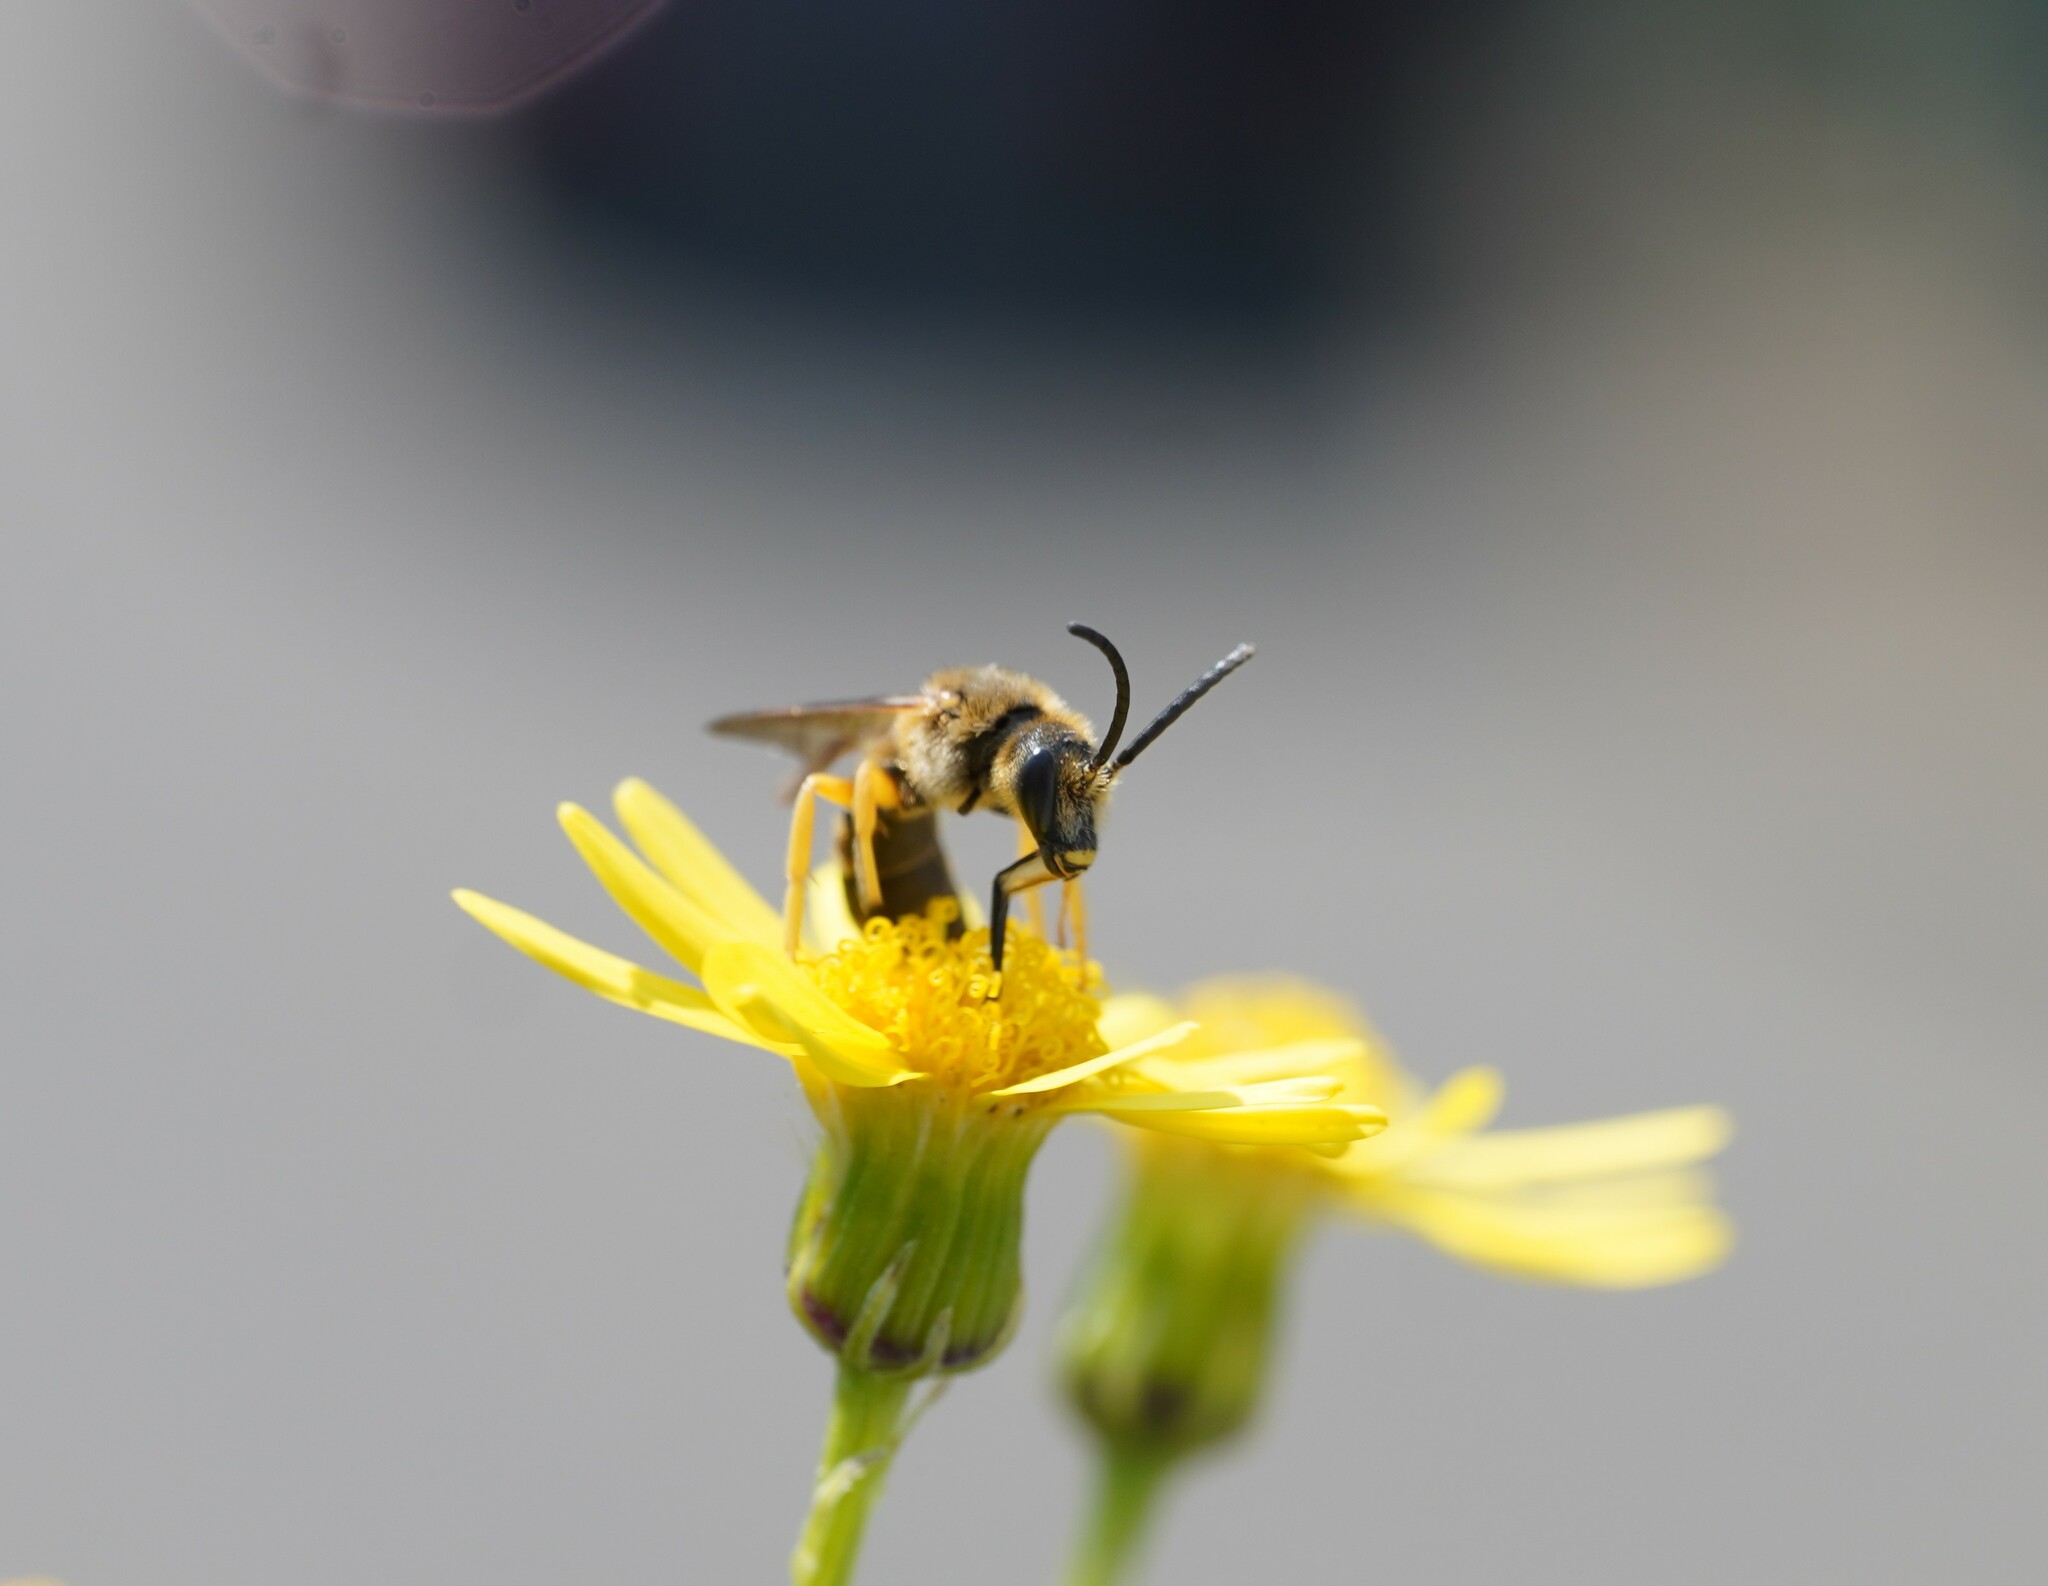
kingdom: Animalia
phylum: Arthropoda
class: Insecta
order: Hymenoptera
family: Halictidae
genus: Halictus
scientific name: Halictus scabiosae
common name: Great banded furrow bee
